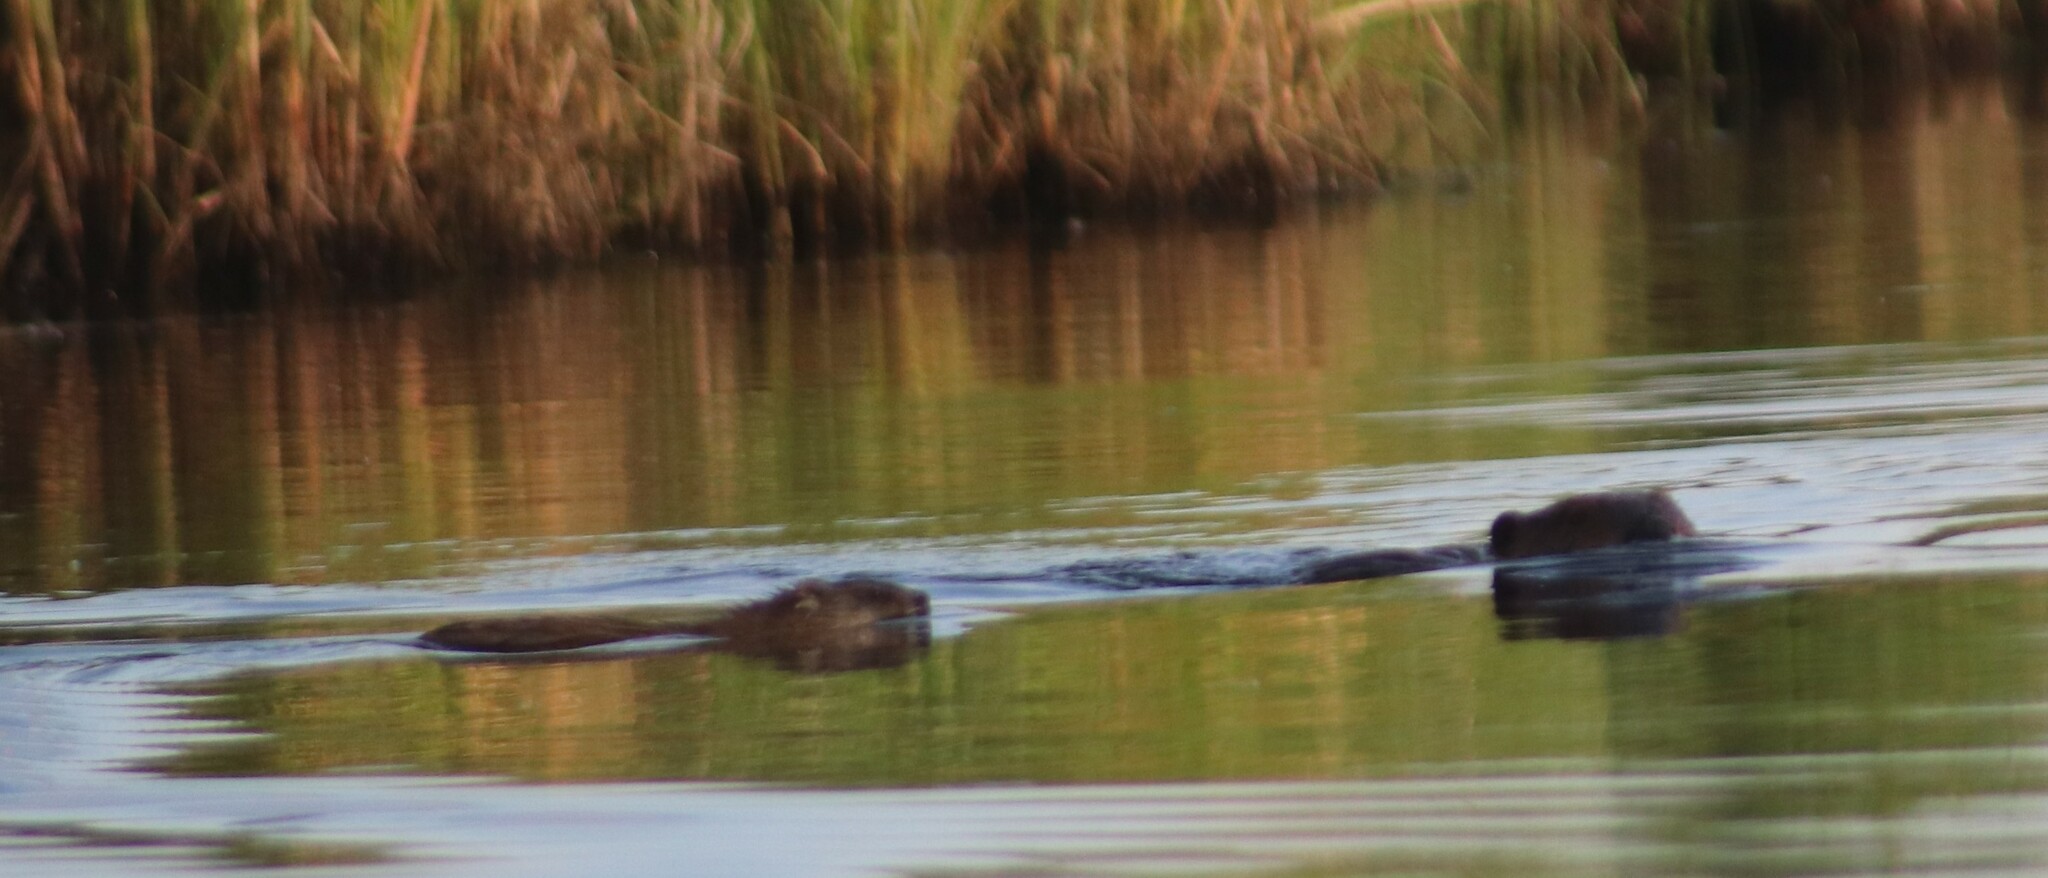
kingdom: Animalia
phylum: Chordata
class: Mammalia
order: Rodentia
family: Cricetidae
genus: Ondatra
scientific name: Ondatra zibethicus
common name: Muskrat
